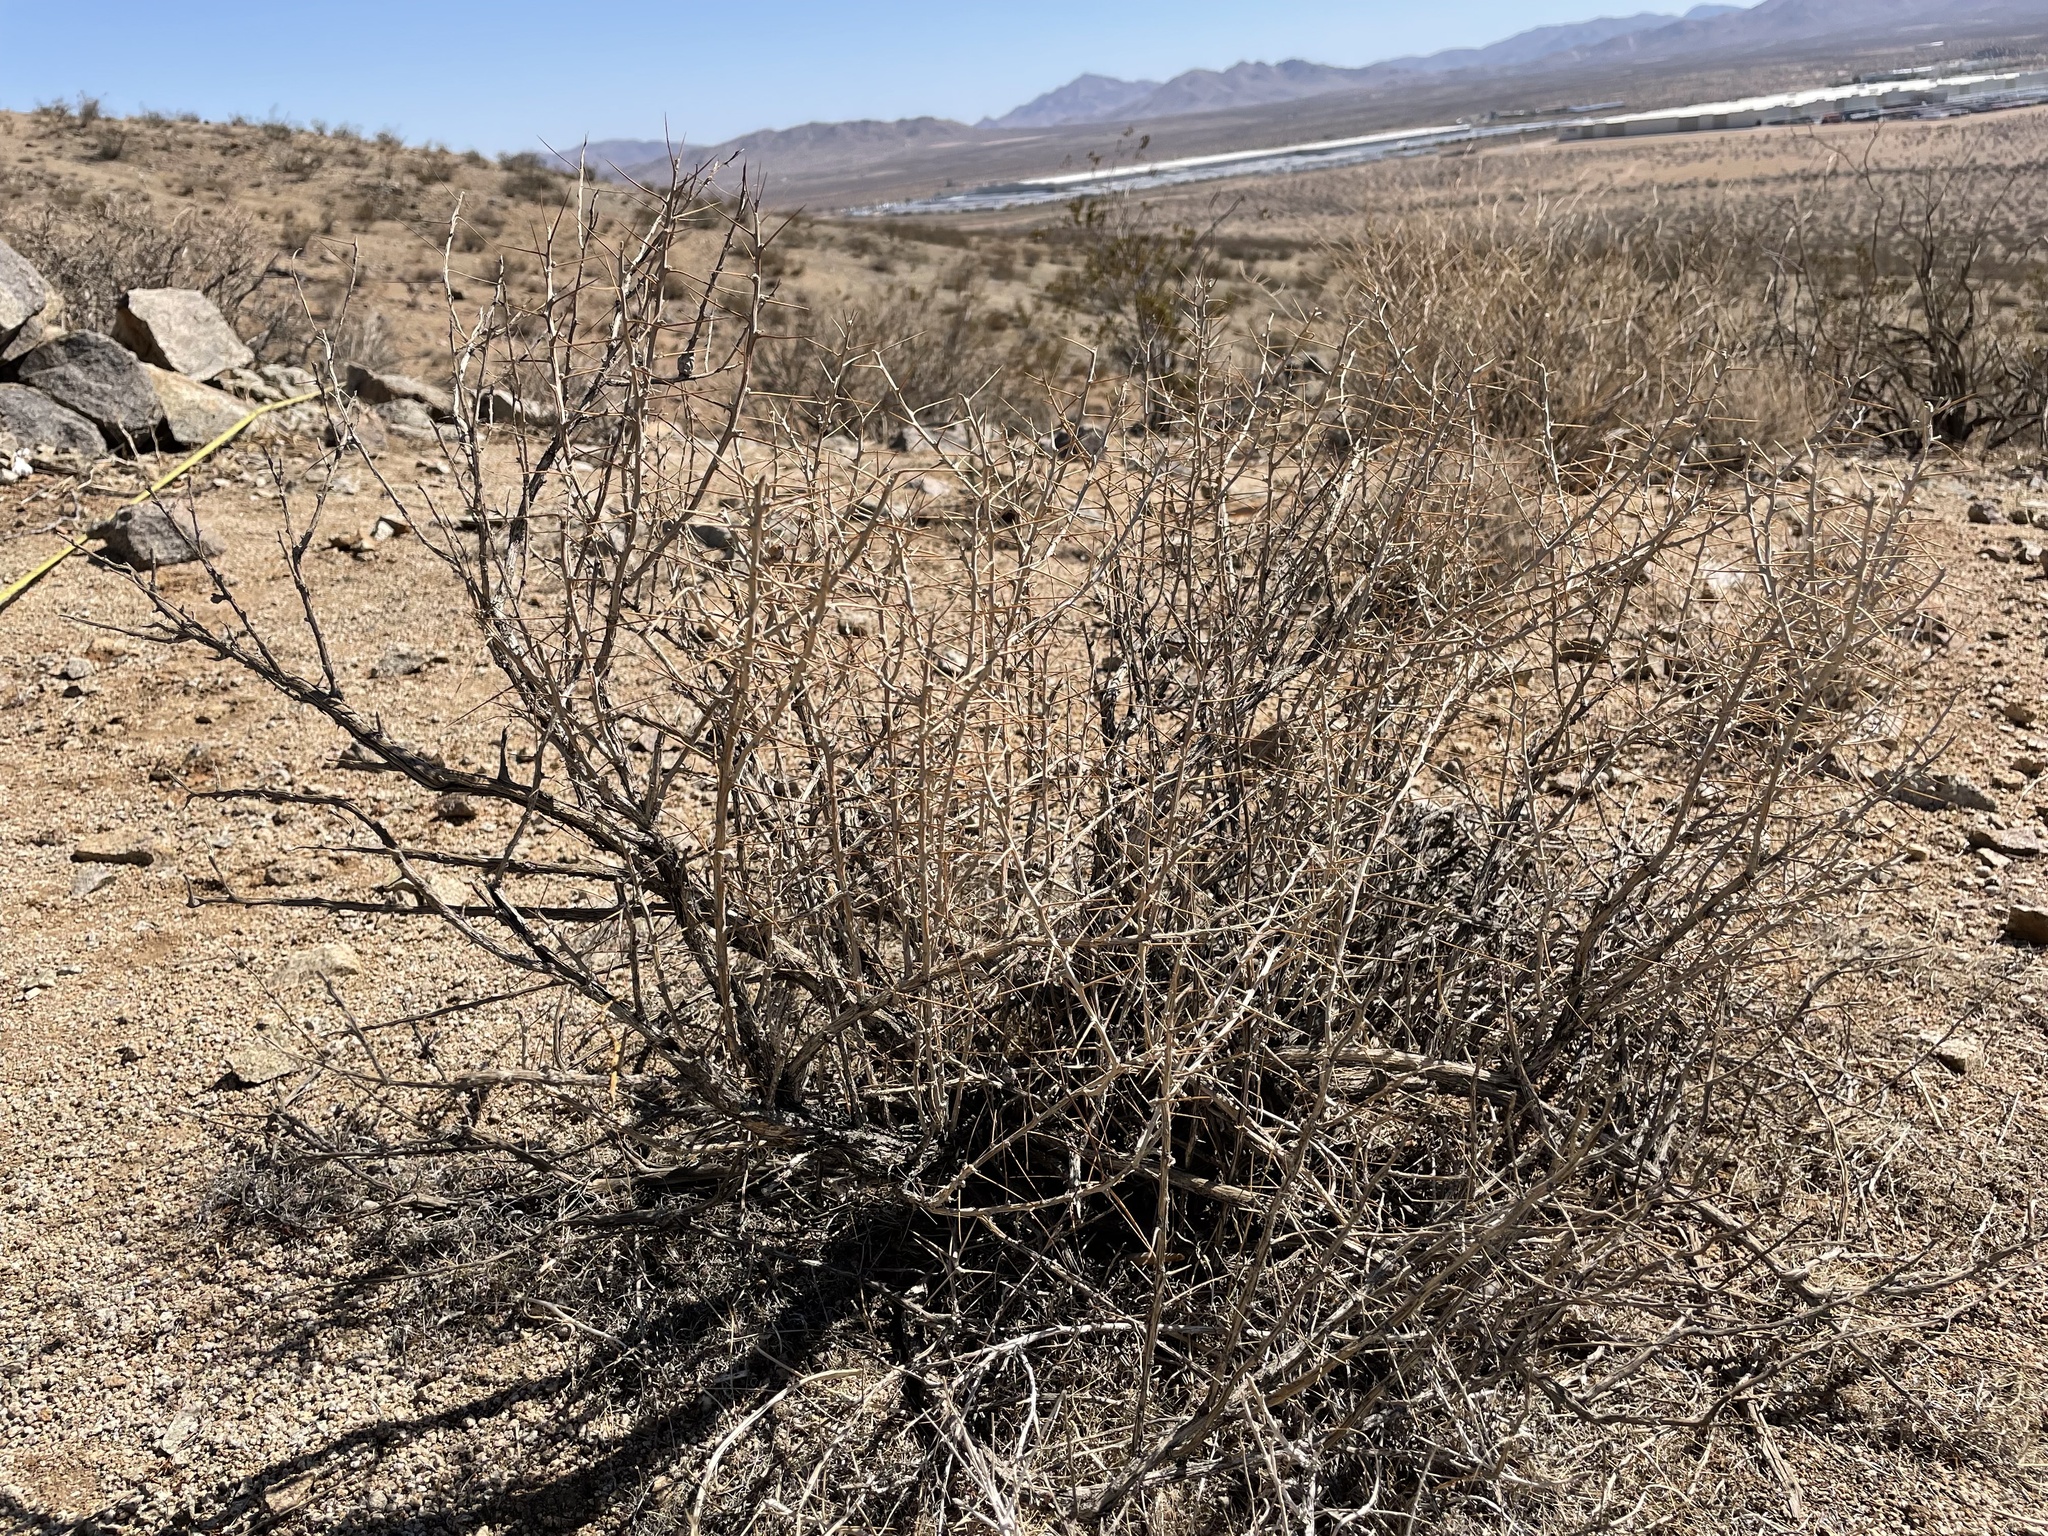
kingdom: Plantae
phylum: Tracheophyta
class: Magnoliopsida
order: Asterales
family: Asteraceae
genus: Tetradymia
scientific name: Tetradymia stenolepis
